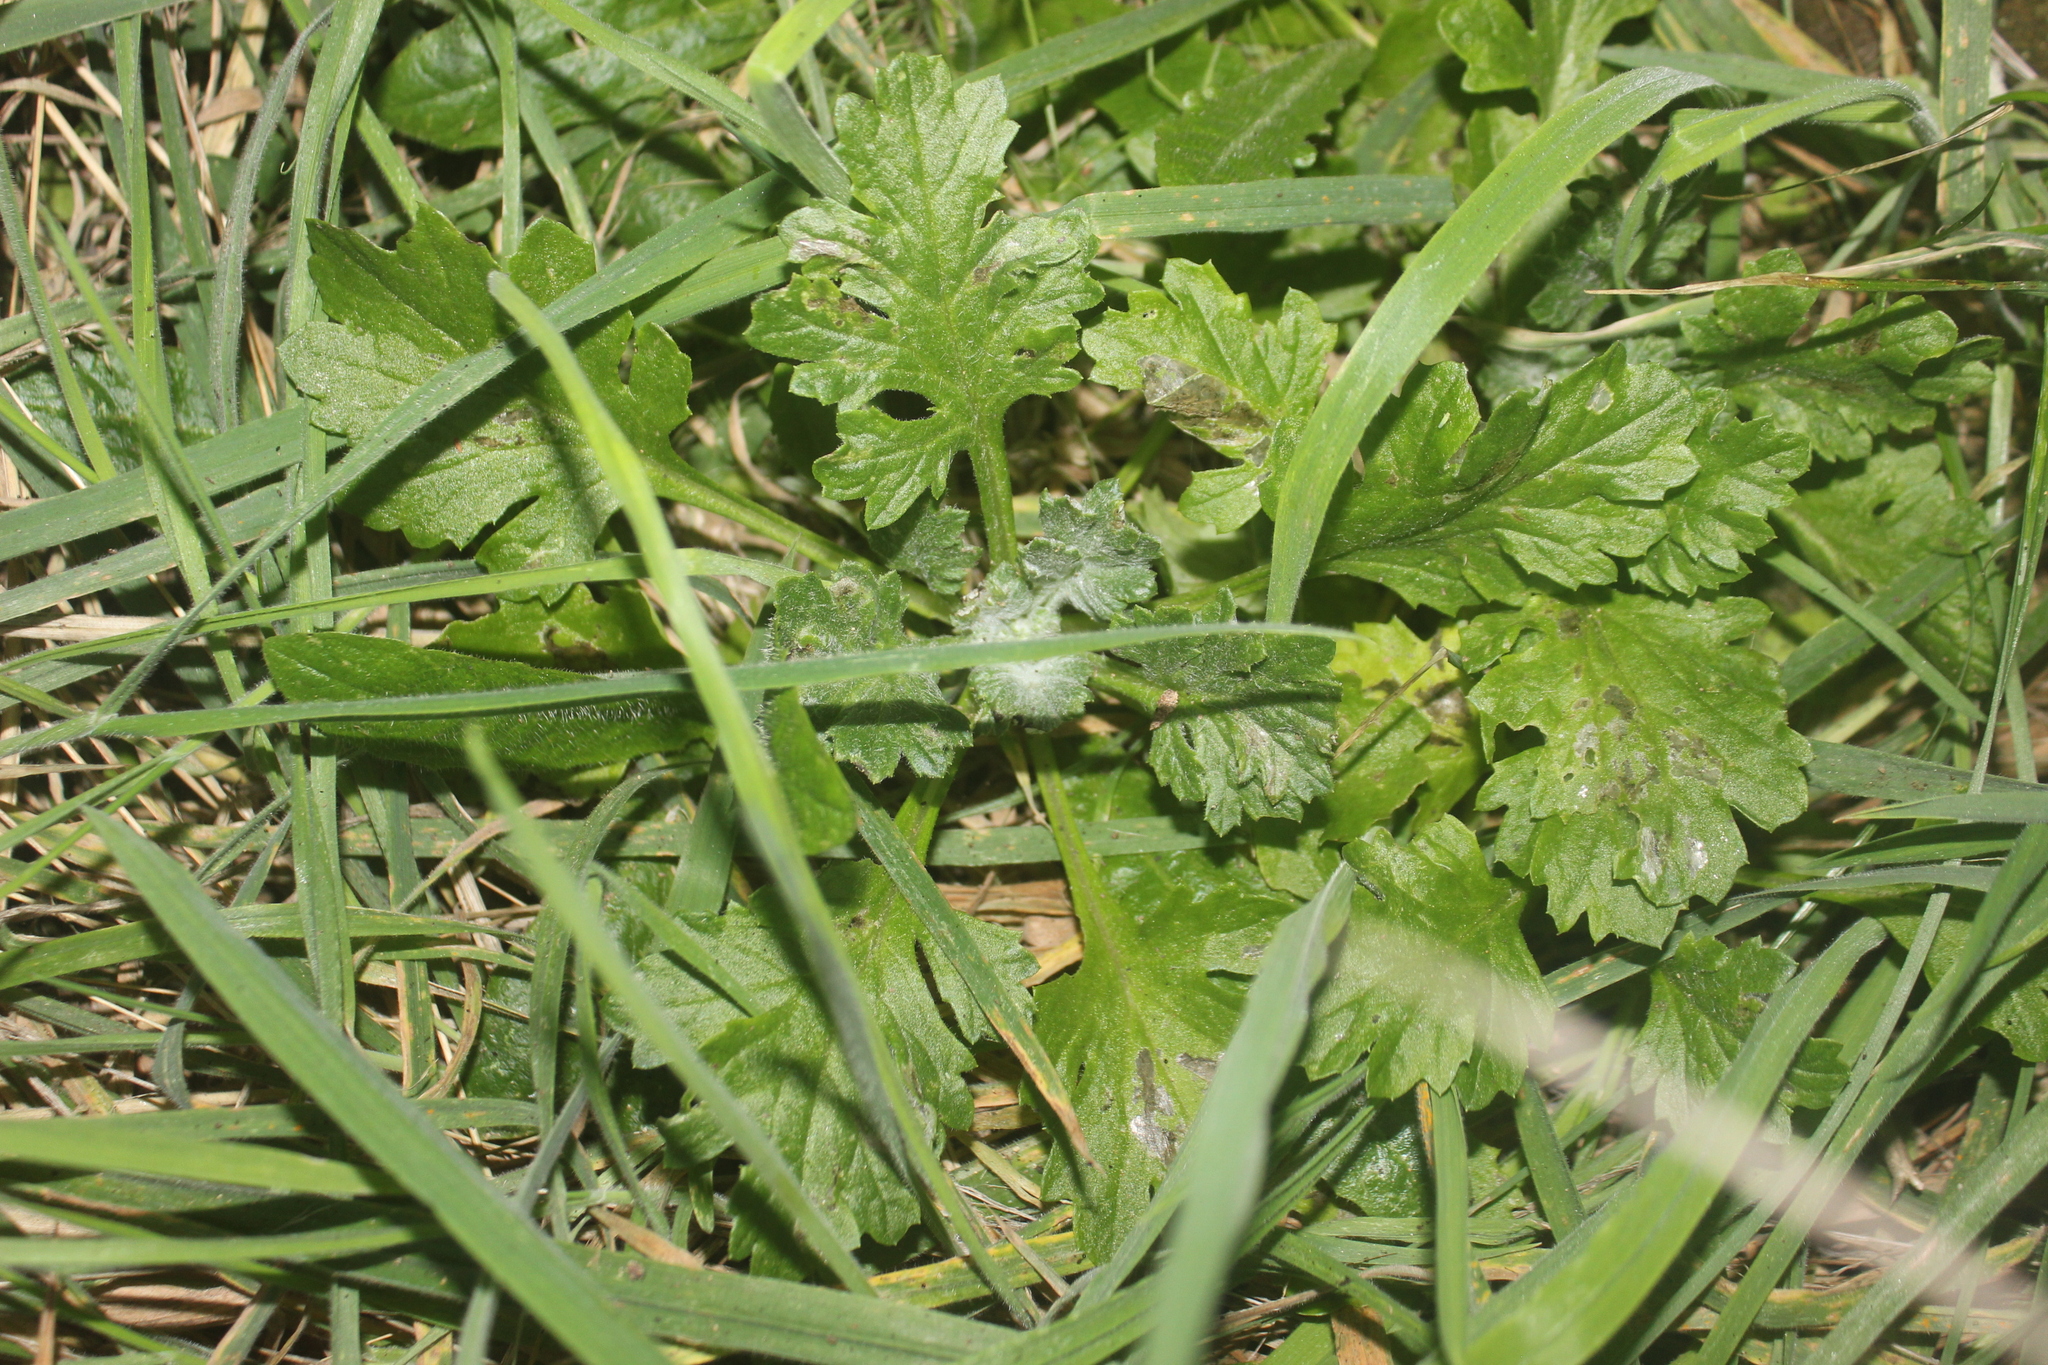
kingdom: Plantae
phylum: Tracheophyta
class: Magnoliopsida
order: Asterales
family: Asteraceae
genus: Senecio
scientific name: Senecio radiolatus
